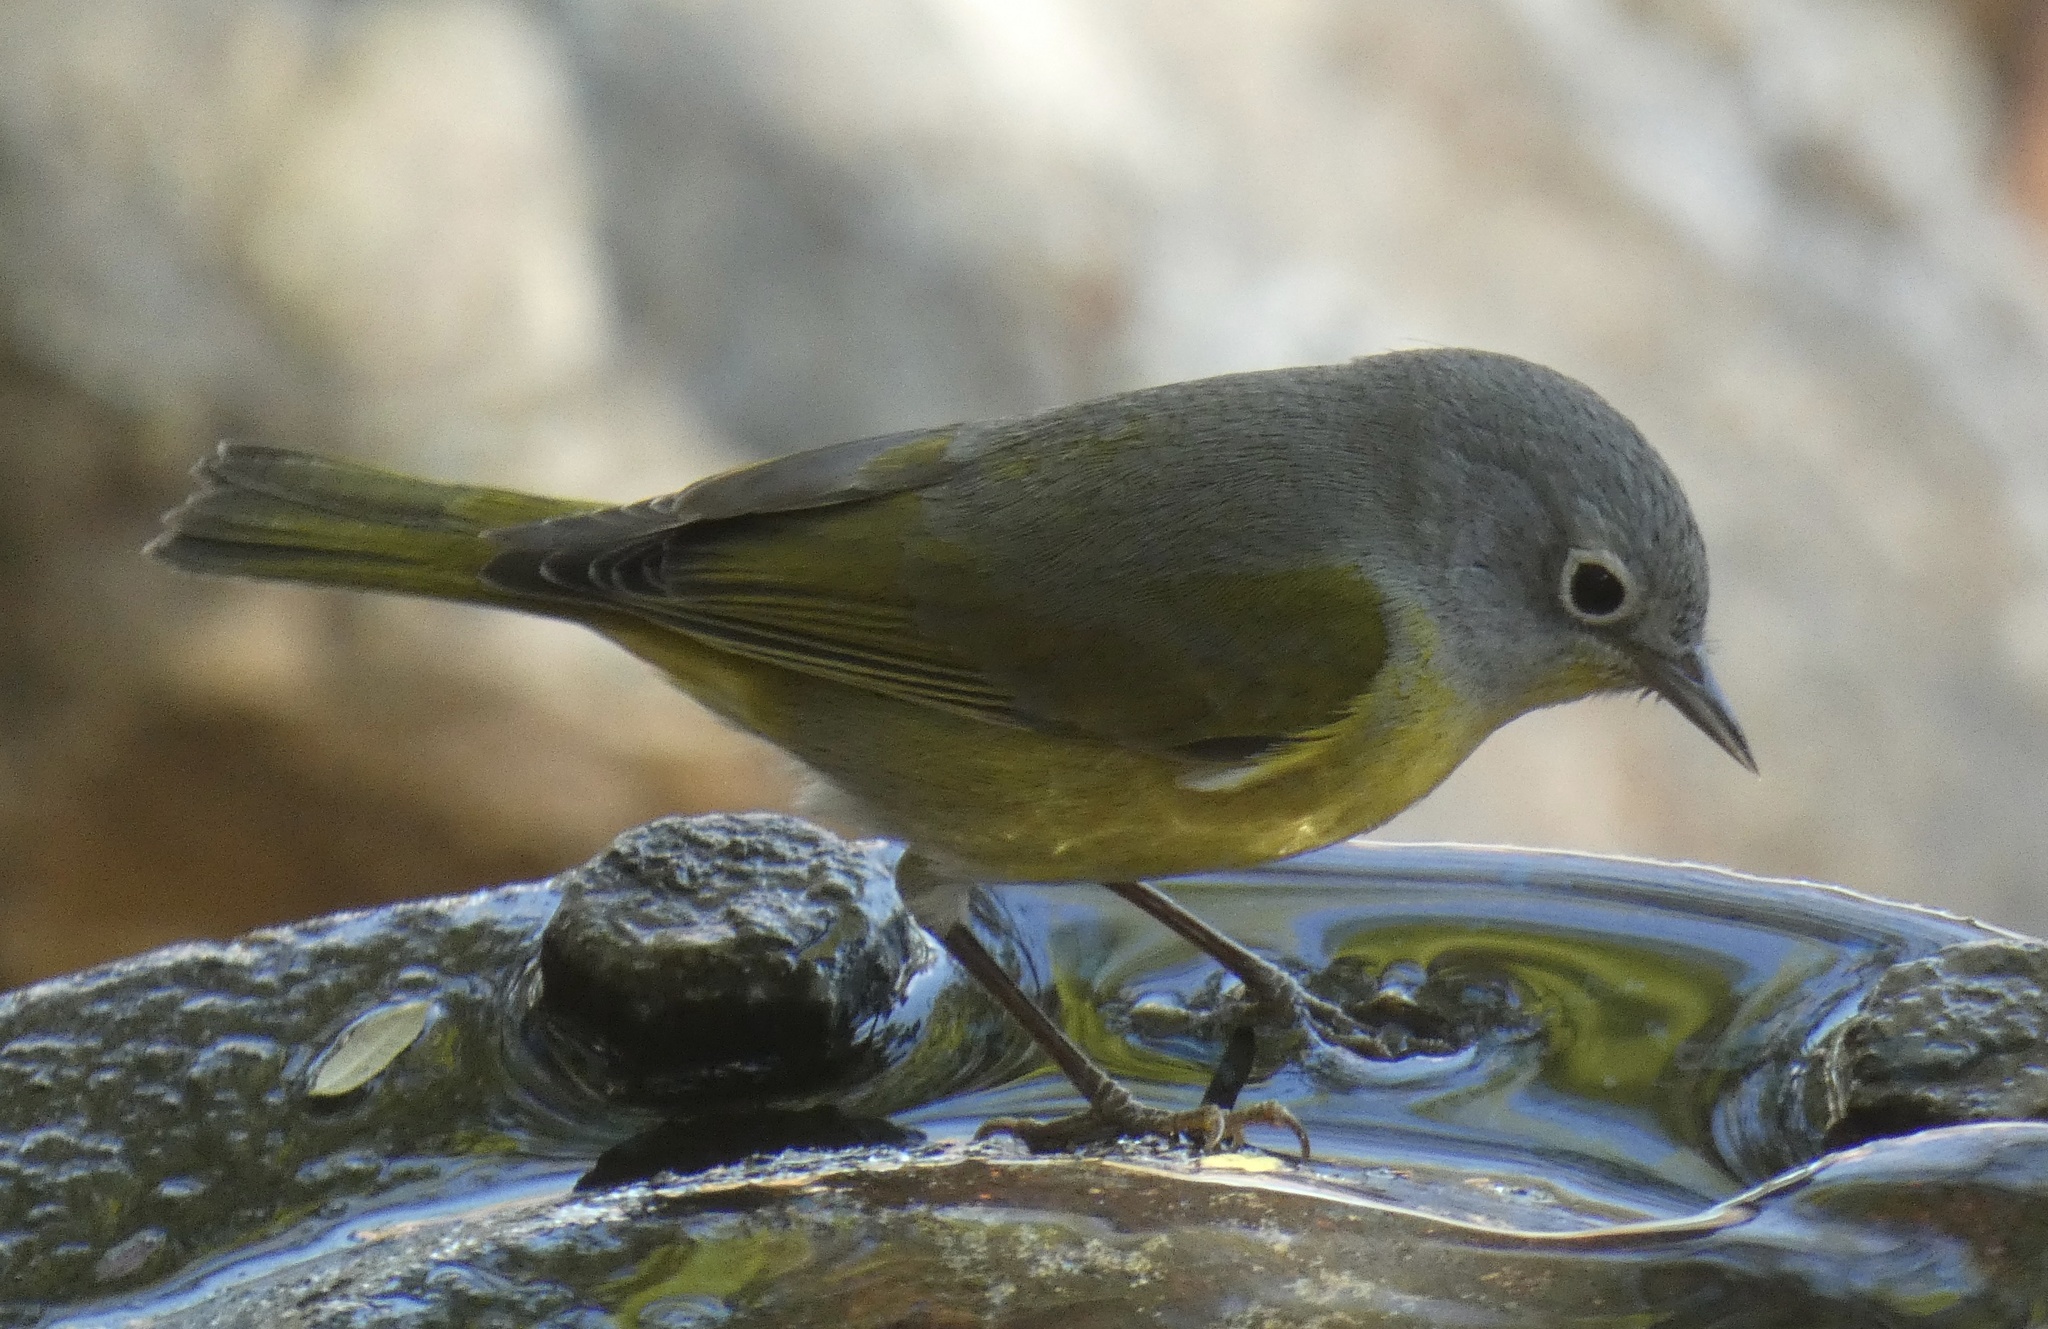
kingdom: Animalia
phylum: Chordata
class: Aves
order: Passeriformes
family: Parulidae
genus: Leiothlypis
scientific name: Leiothlypis ruficapilla
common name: Nashville warbler
